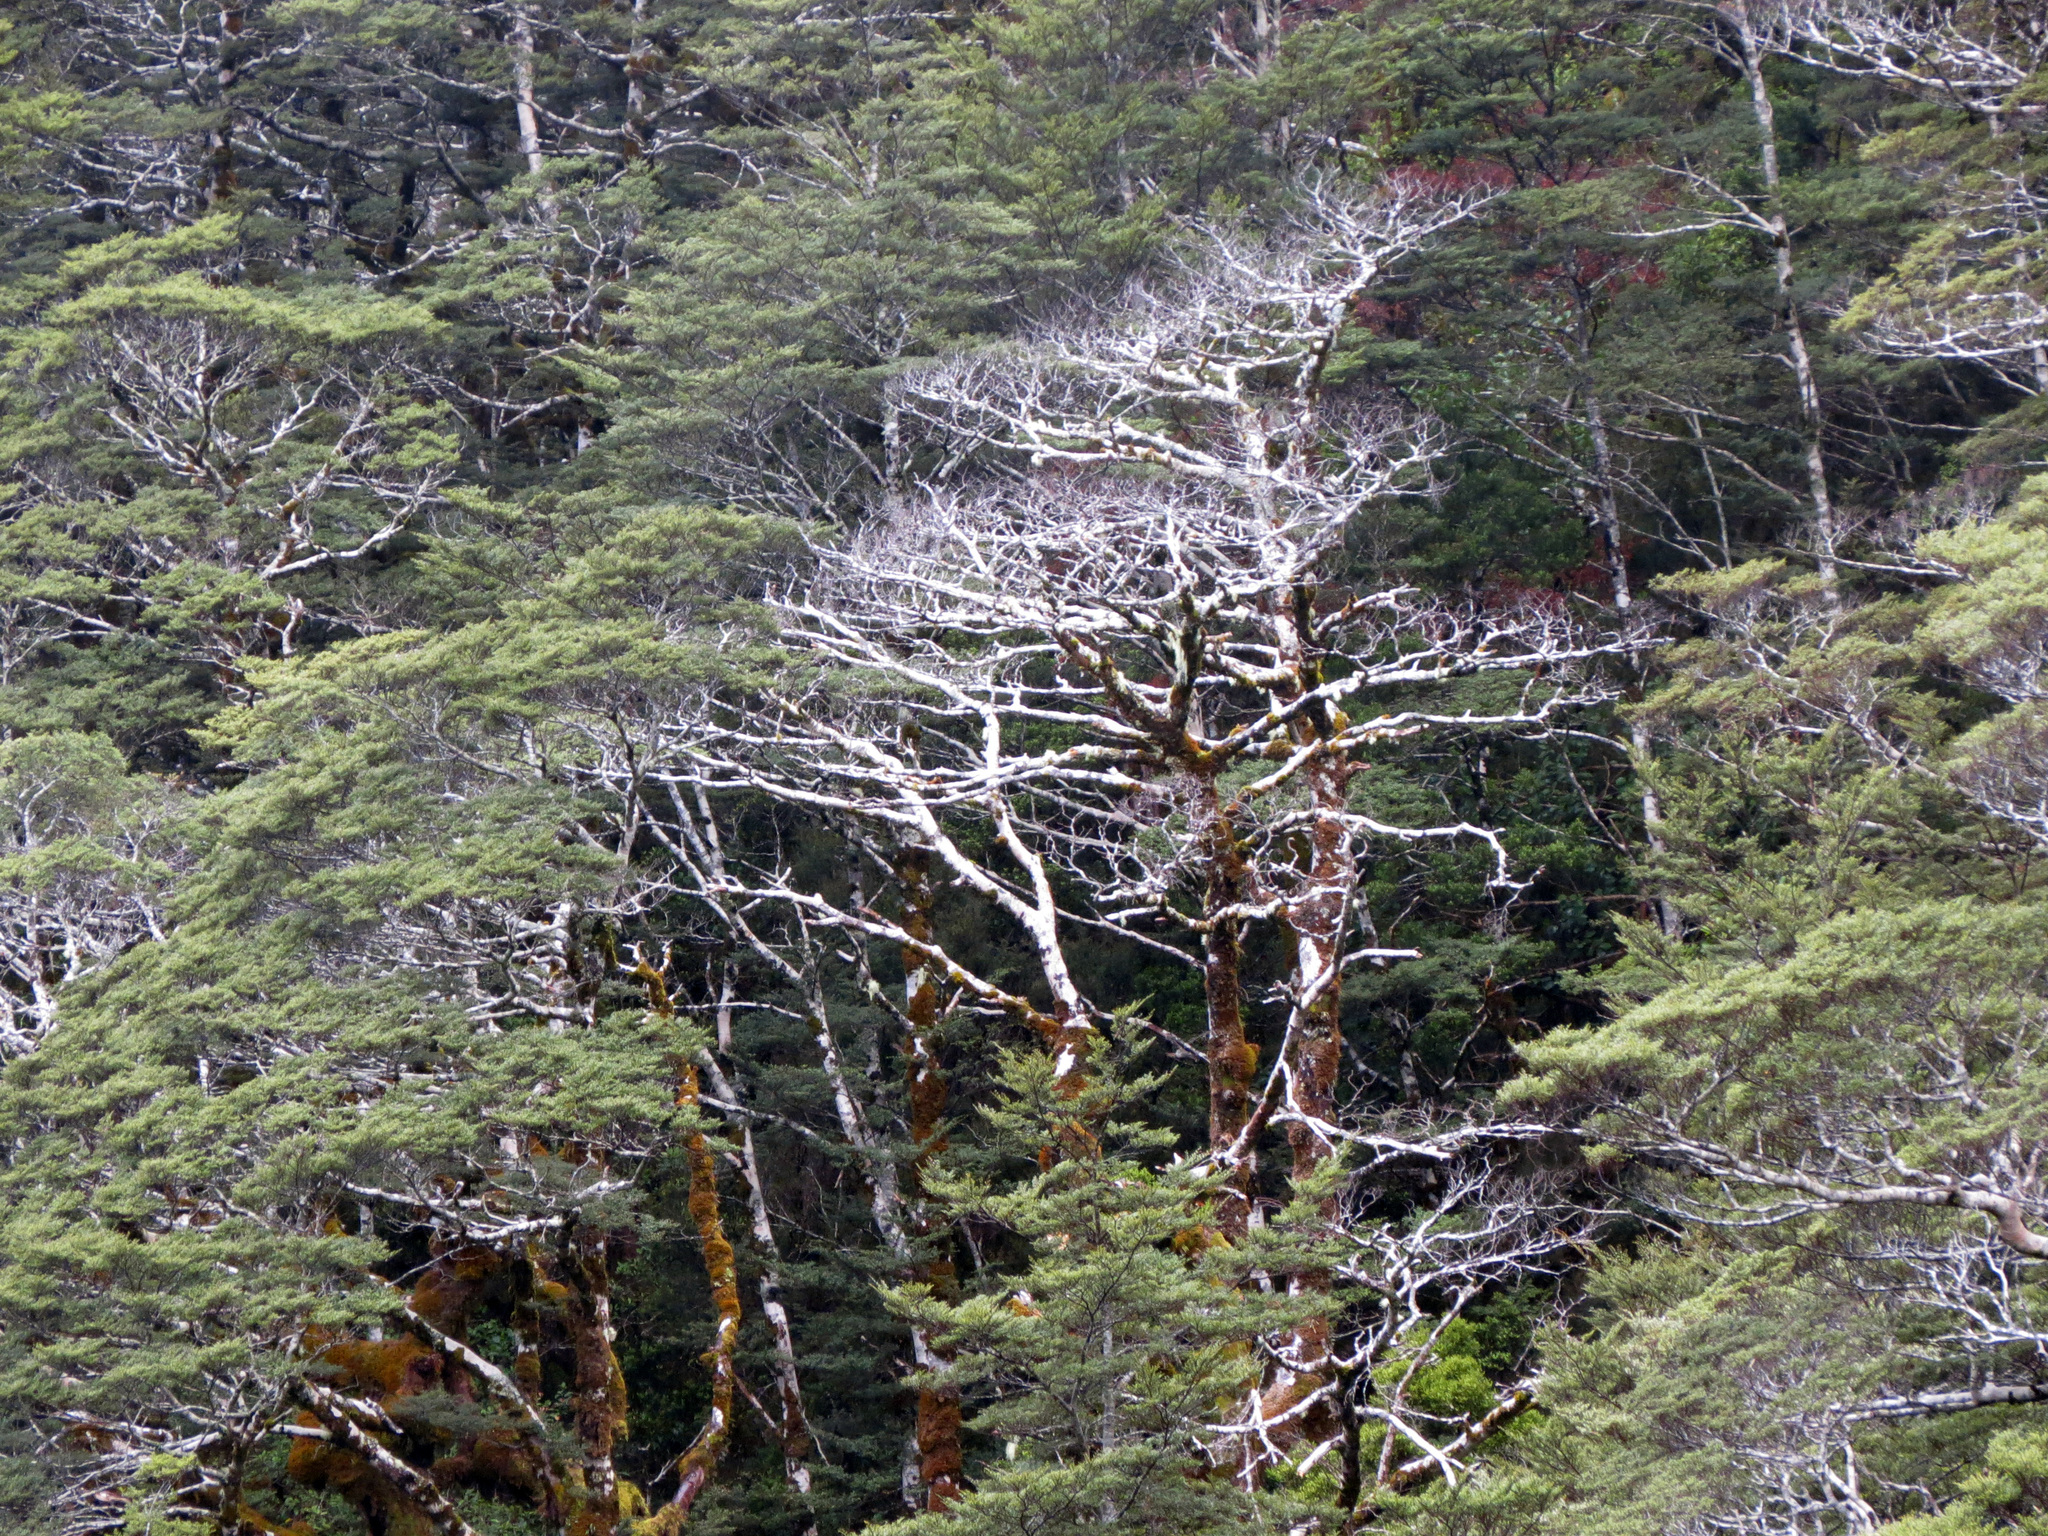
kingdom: Plantae
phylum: Tracheophyta
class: Magnoliopsida
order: Fagales
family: Nothofagaceae
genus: Nothofagus
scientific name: Nothofagus cliffortioides
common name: Mountain beech
